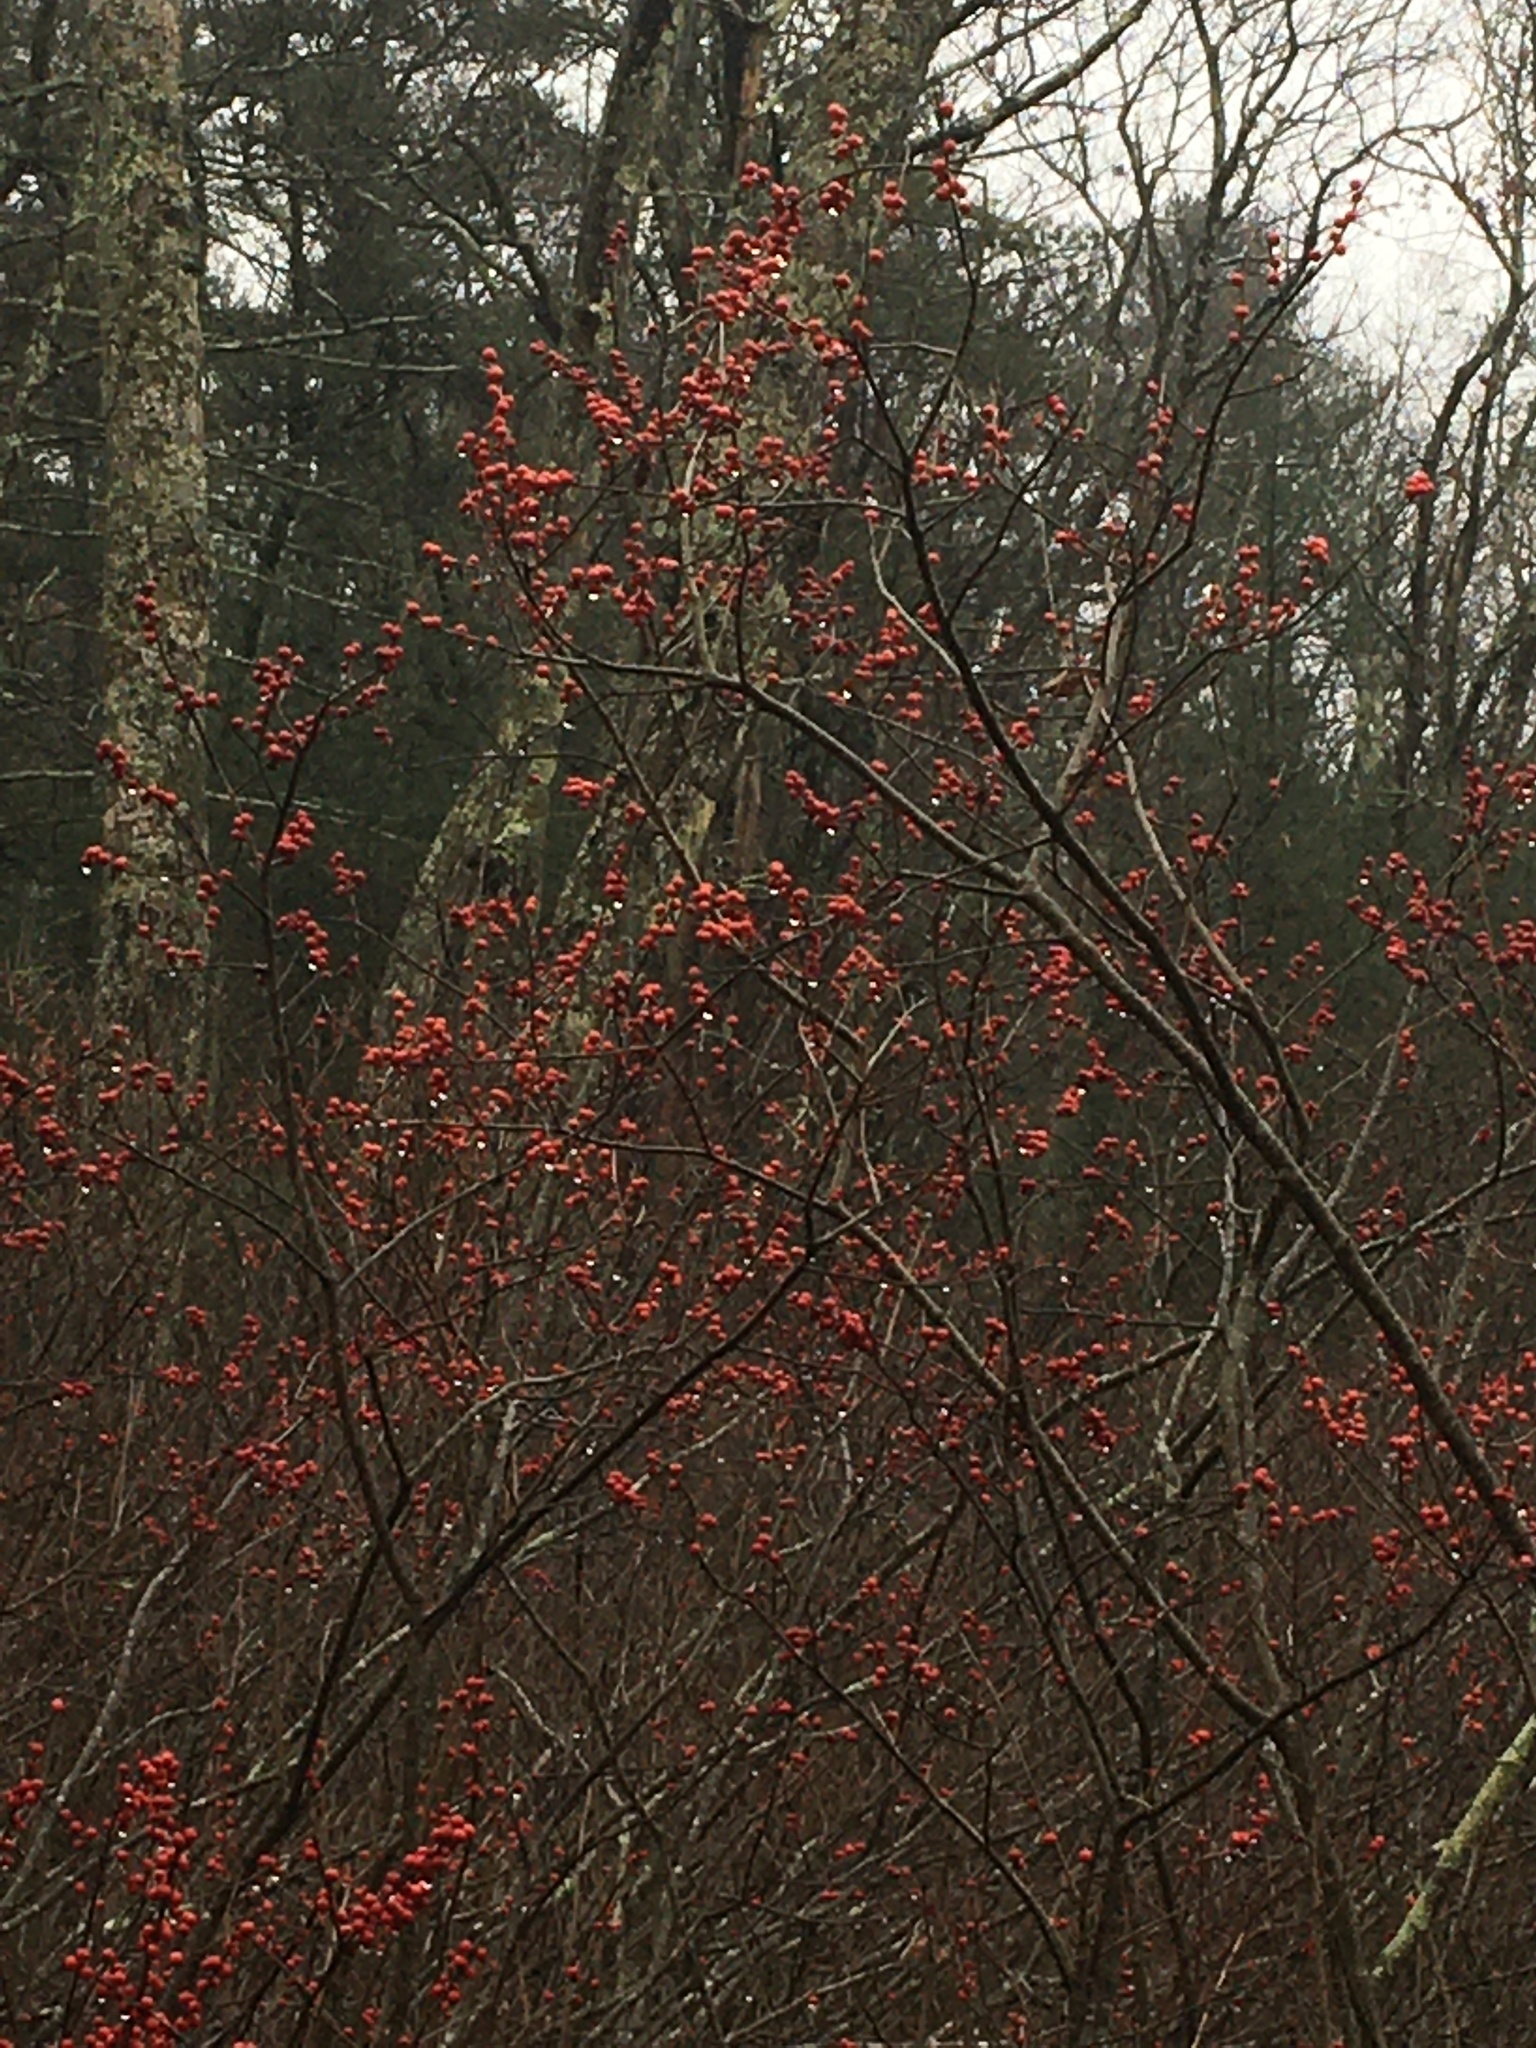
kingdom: Plantae
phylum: Tracheophyta
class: Magnoliopsida
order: Aquifoliales
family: Aquifoliaceae
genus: Ilex
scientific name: Ilex verticillata
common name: Virginia winterberry
